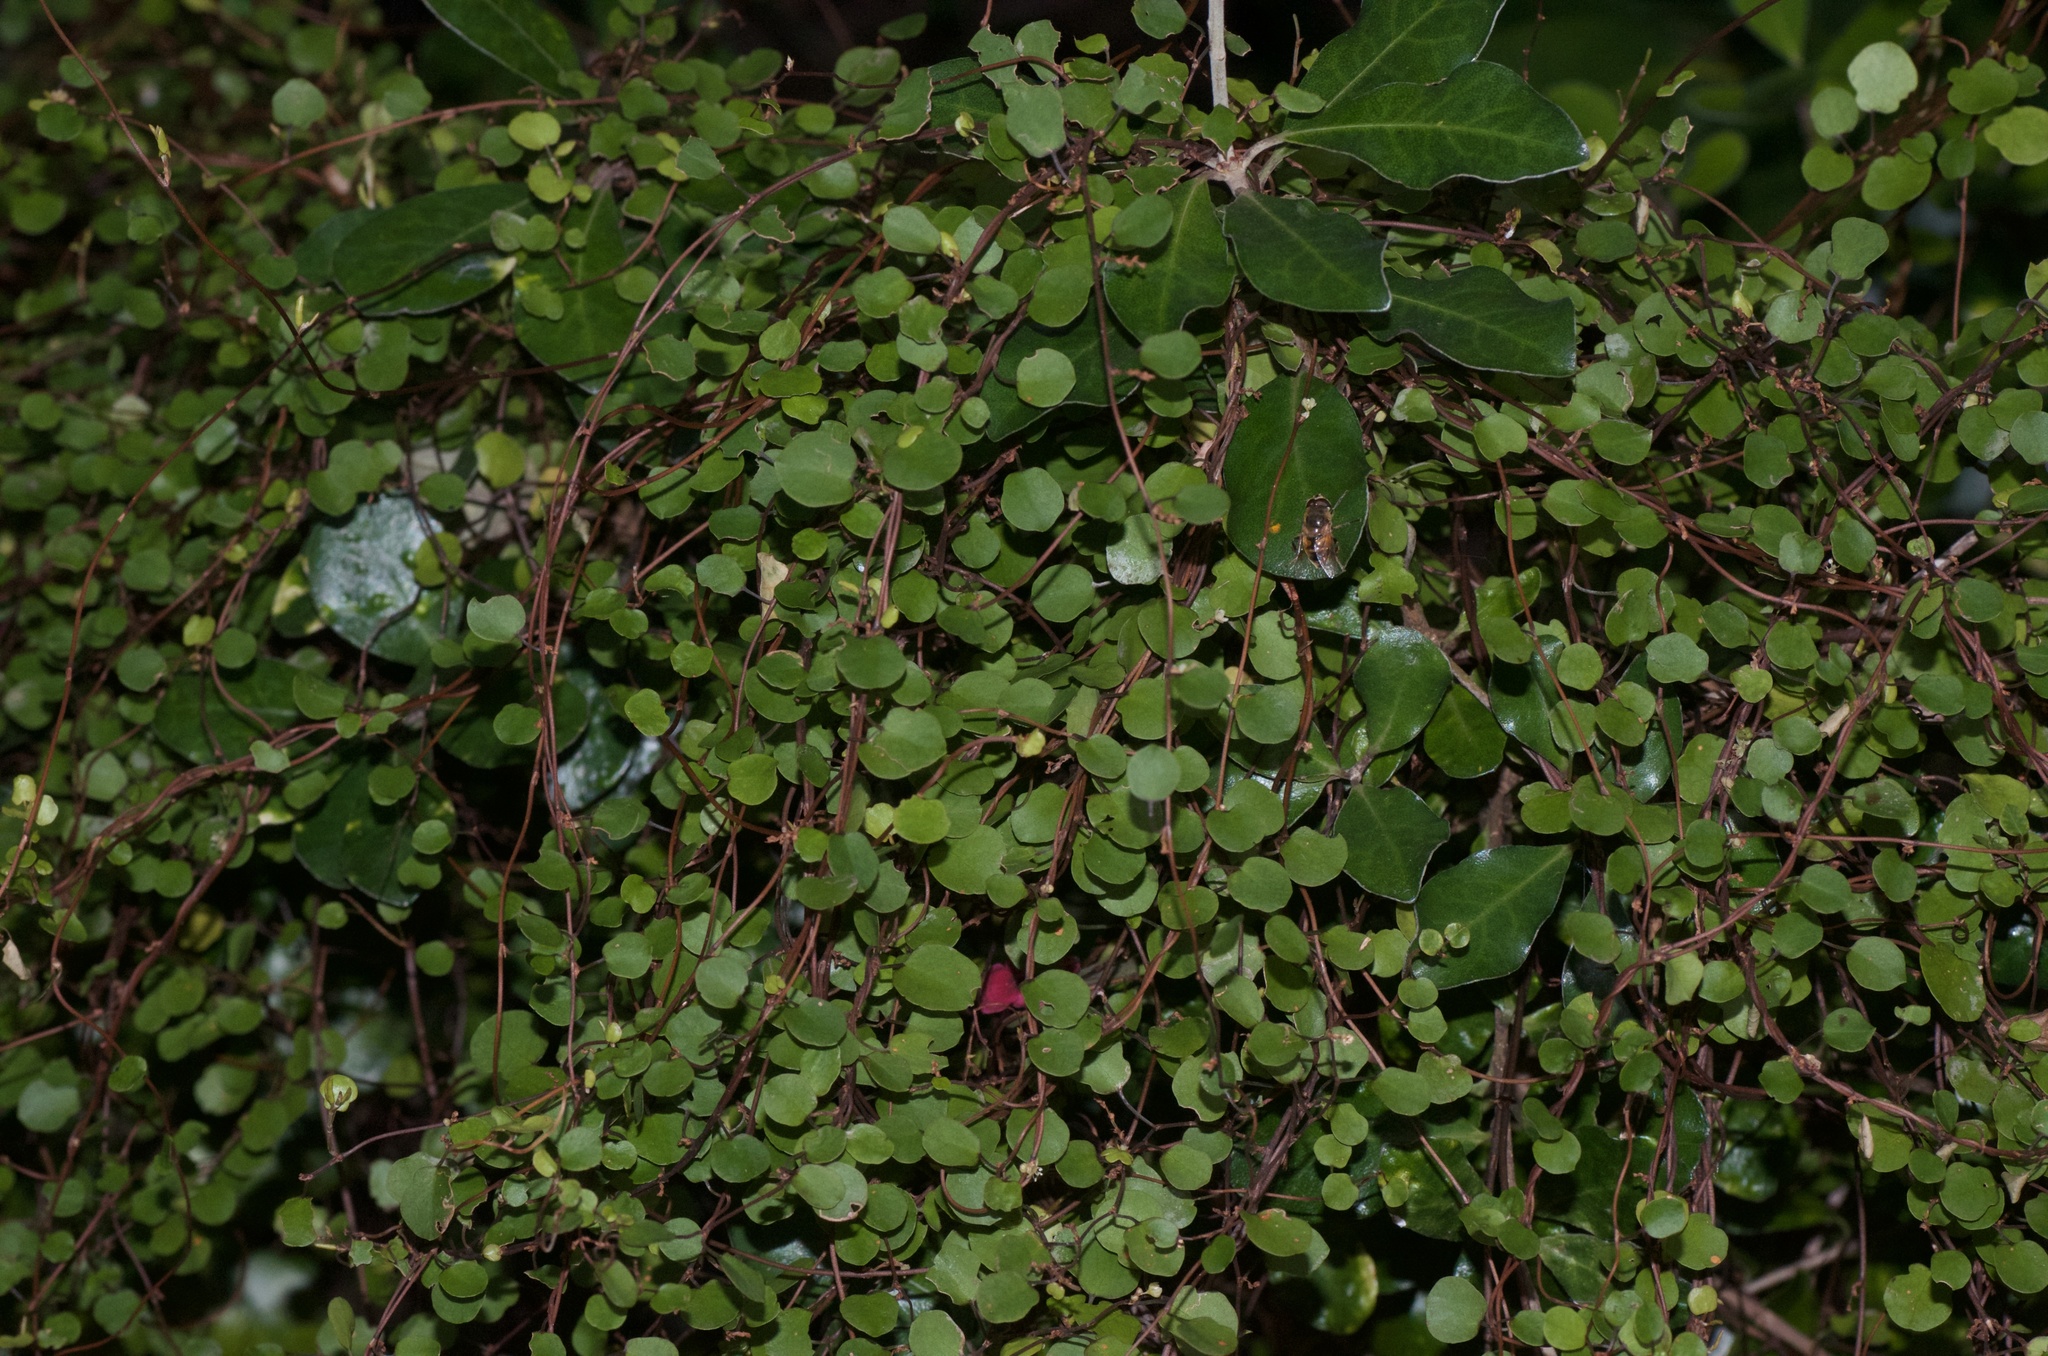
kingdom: Plantae
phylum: Tracheophyta
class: Magnoliopsida
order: Caryophyllales
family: Polygonaceae
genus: Muehlenbeckia
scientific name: Muehlenbeckia complexa
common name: Wireplant
